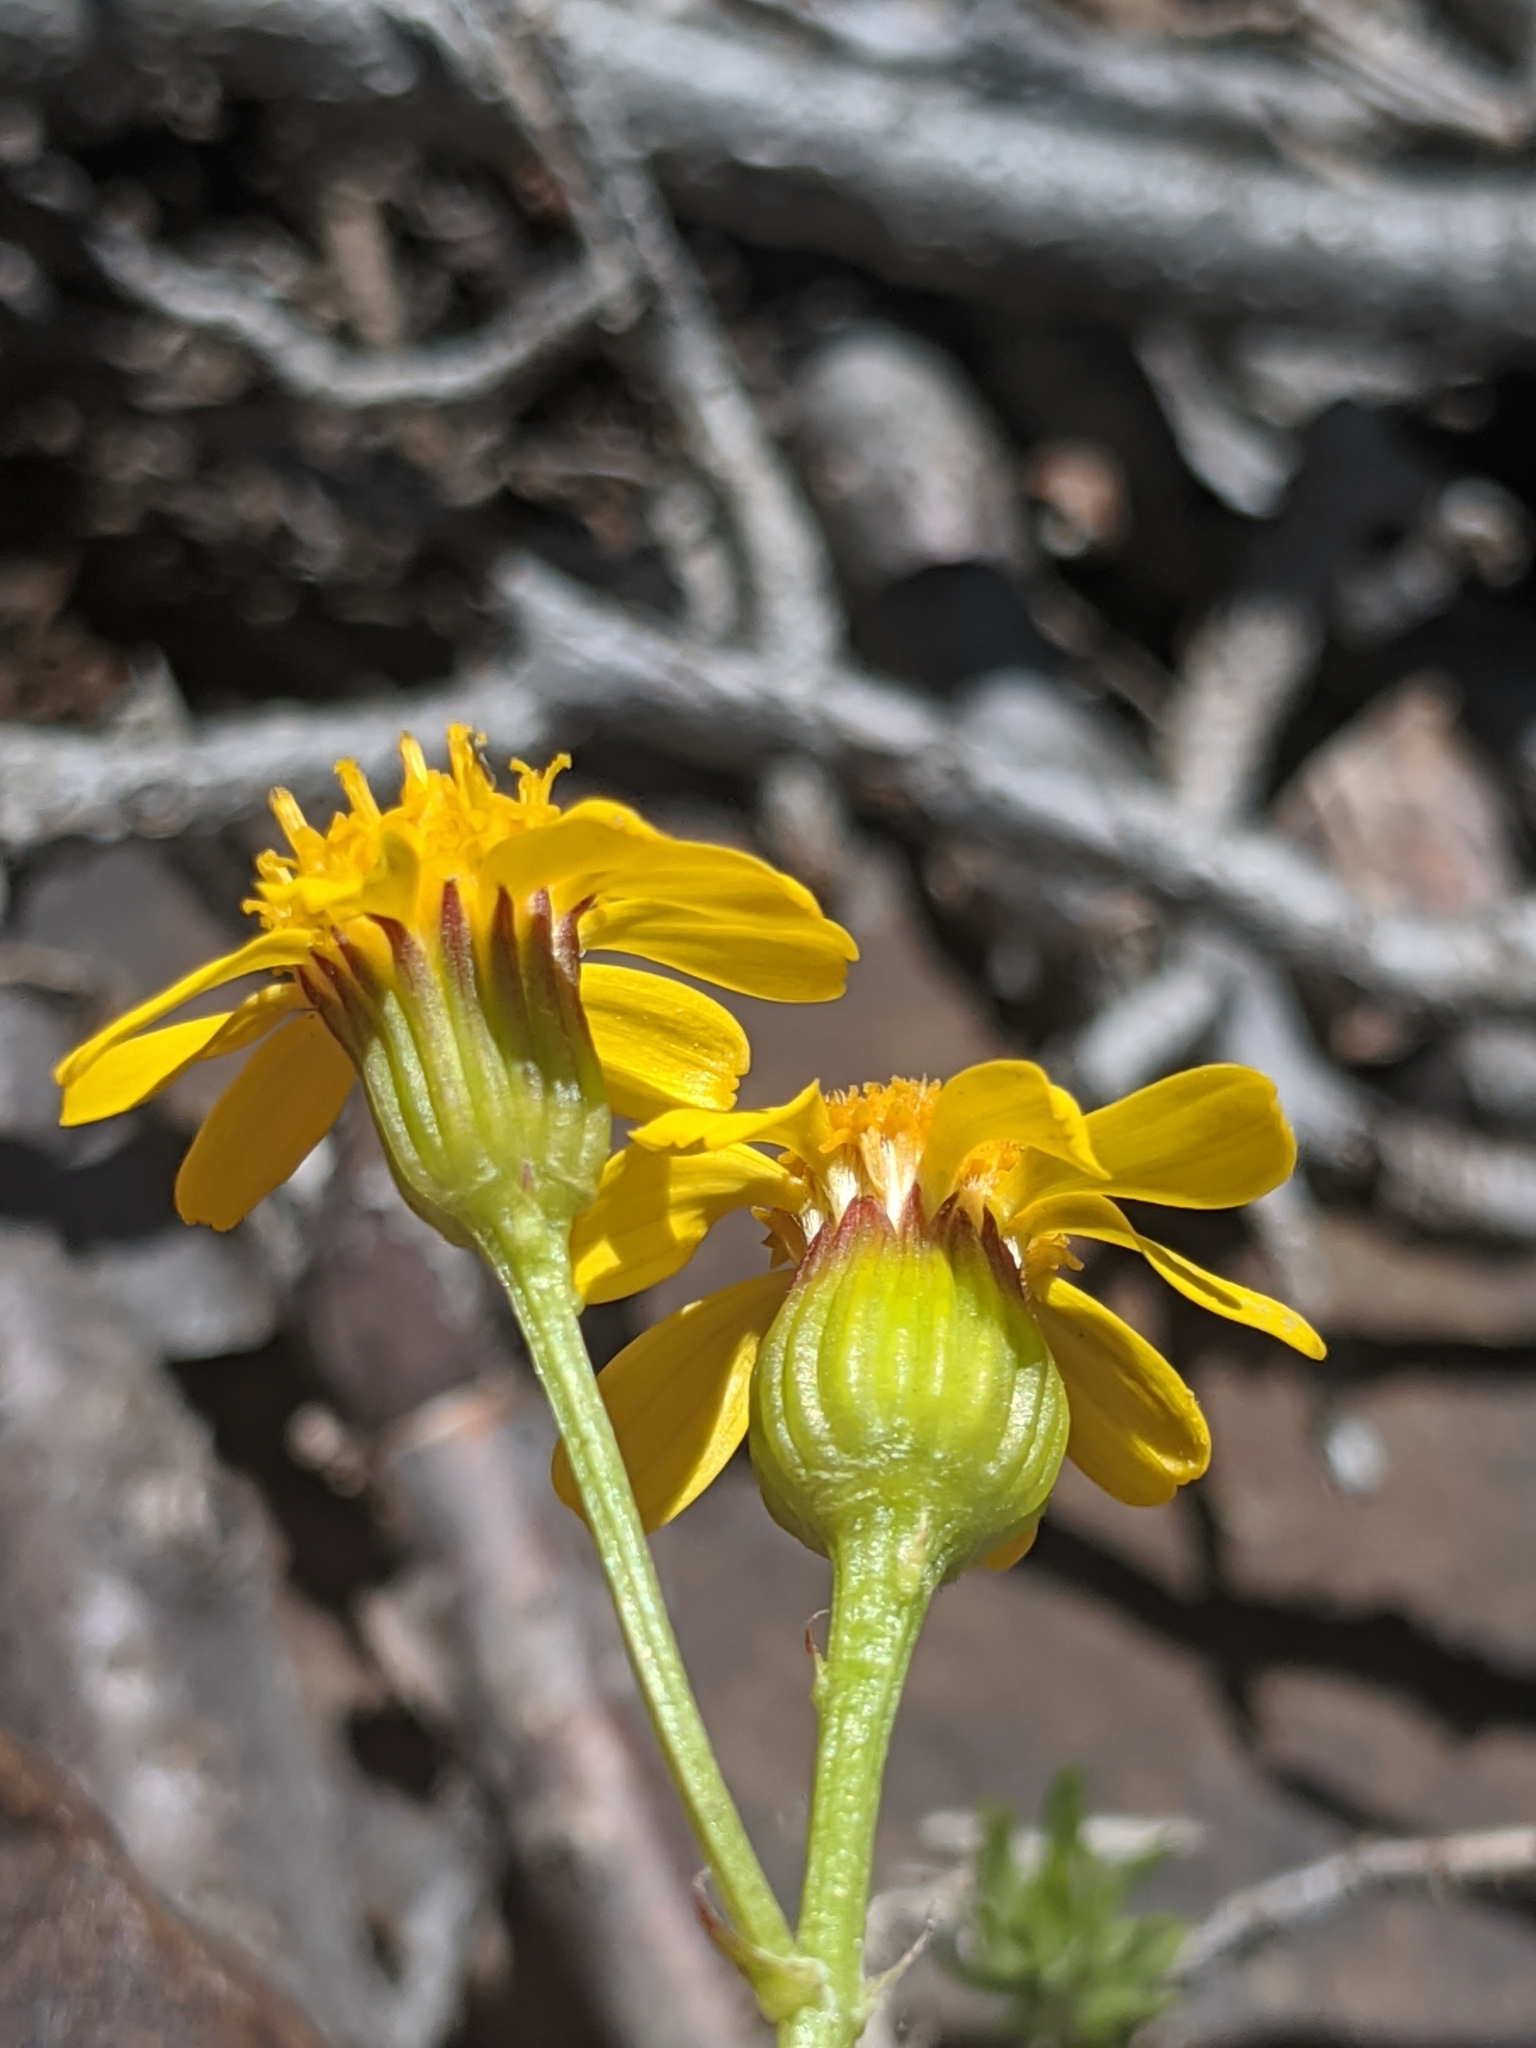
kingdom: Plantae
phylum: Tracheophyta
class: Magnoliopsida
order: Asterales
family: Asteraceae
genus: Packera
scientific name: Packera multilobata
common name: Lobe-leaf groundsel
